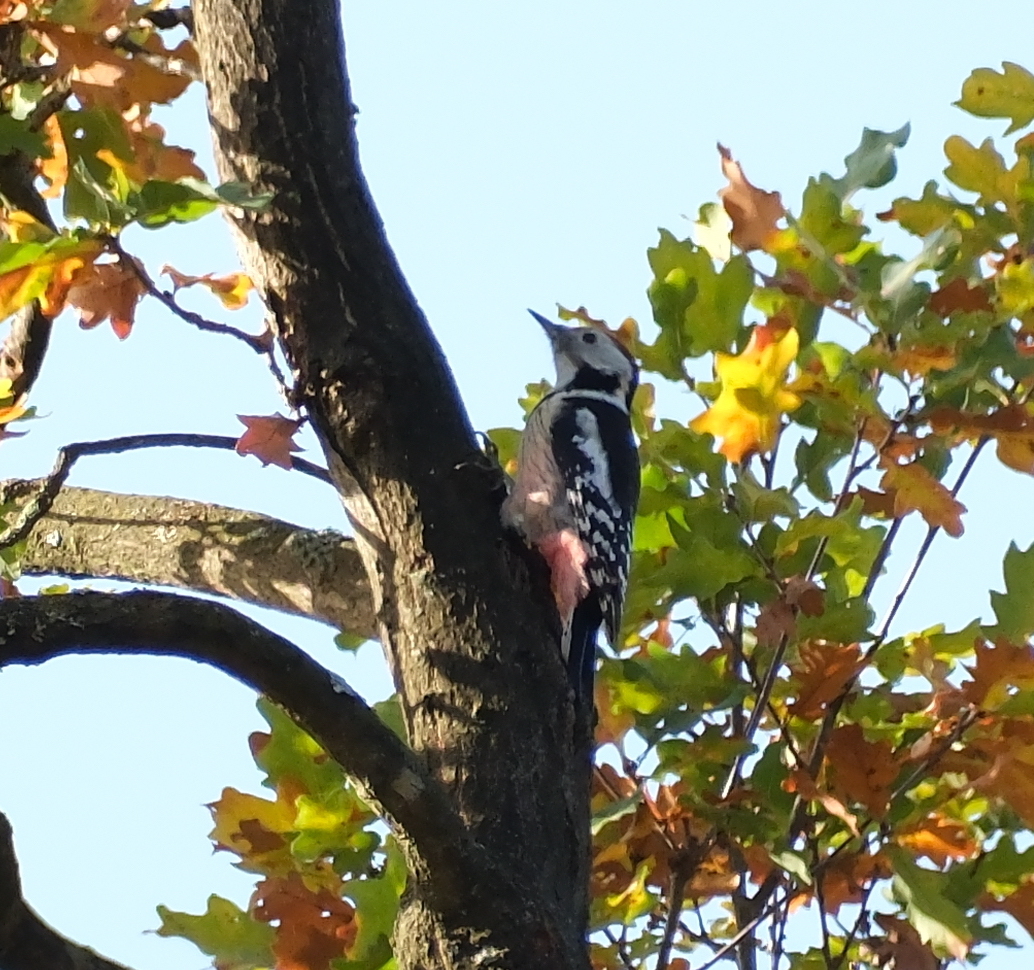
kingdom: Animalia
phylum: Chordata
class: Aves
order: Piciformes
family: Picidae
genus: Dendrocoptes
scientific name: Dendrocoptes medius
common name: Middle spotted woodpecker
